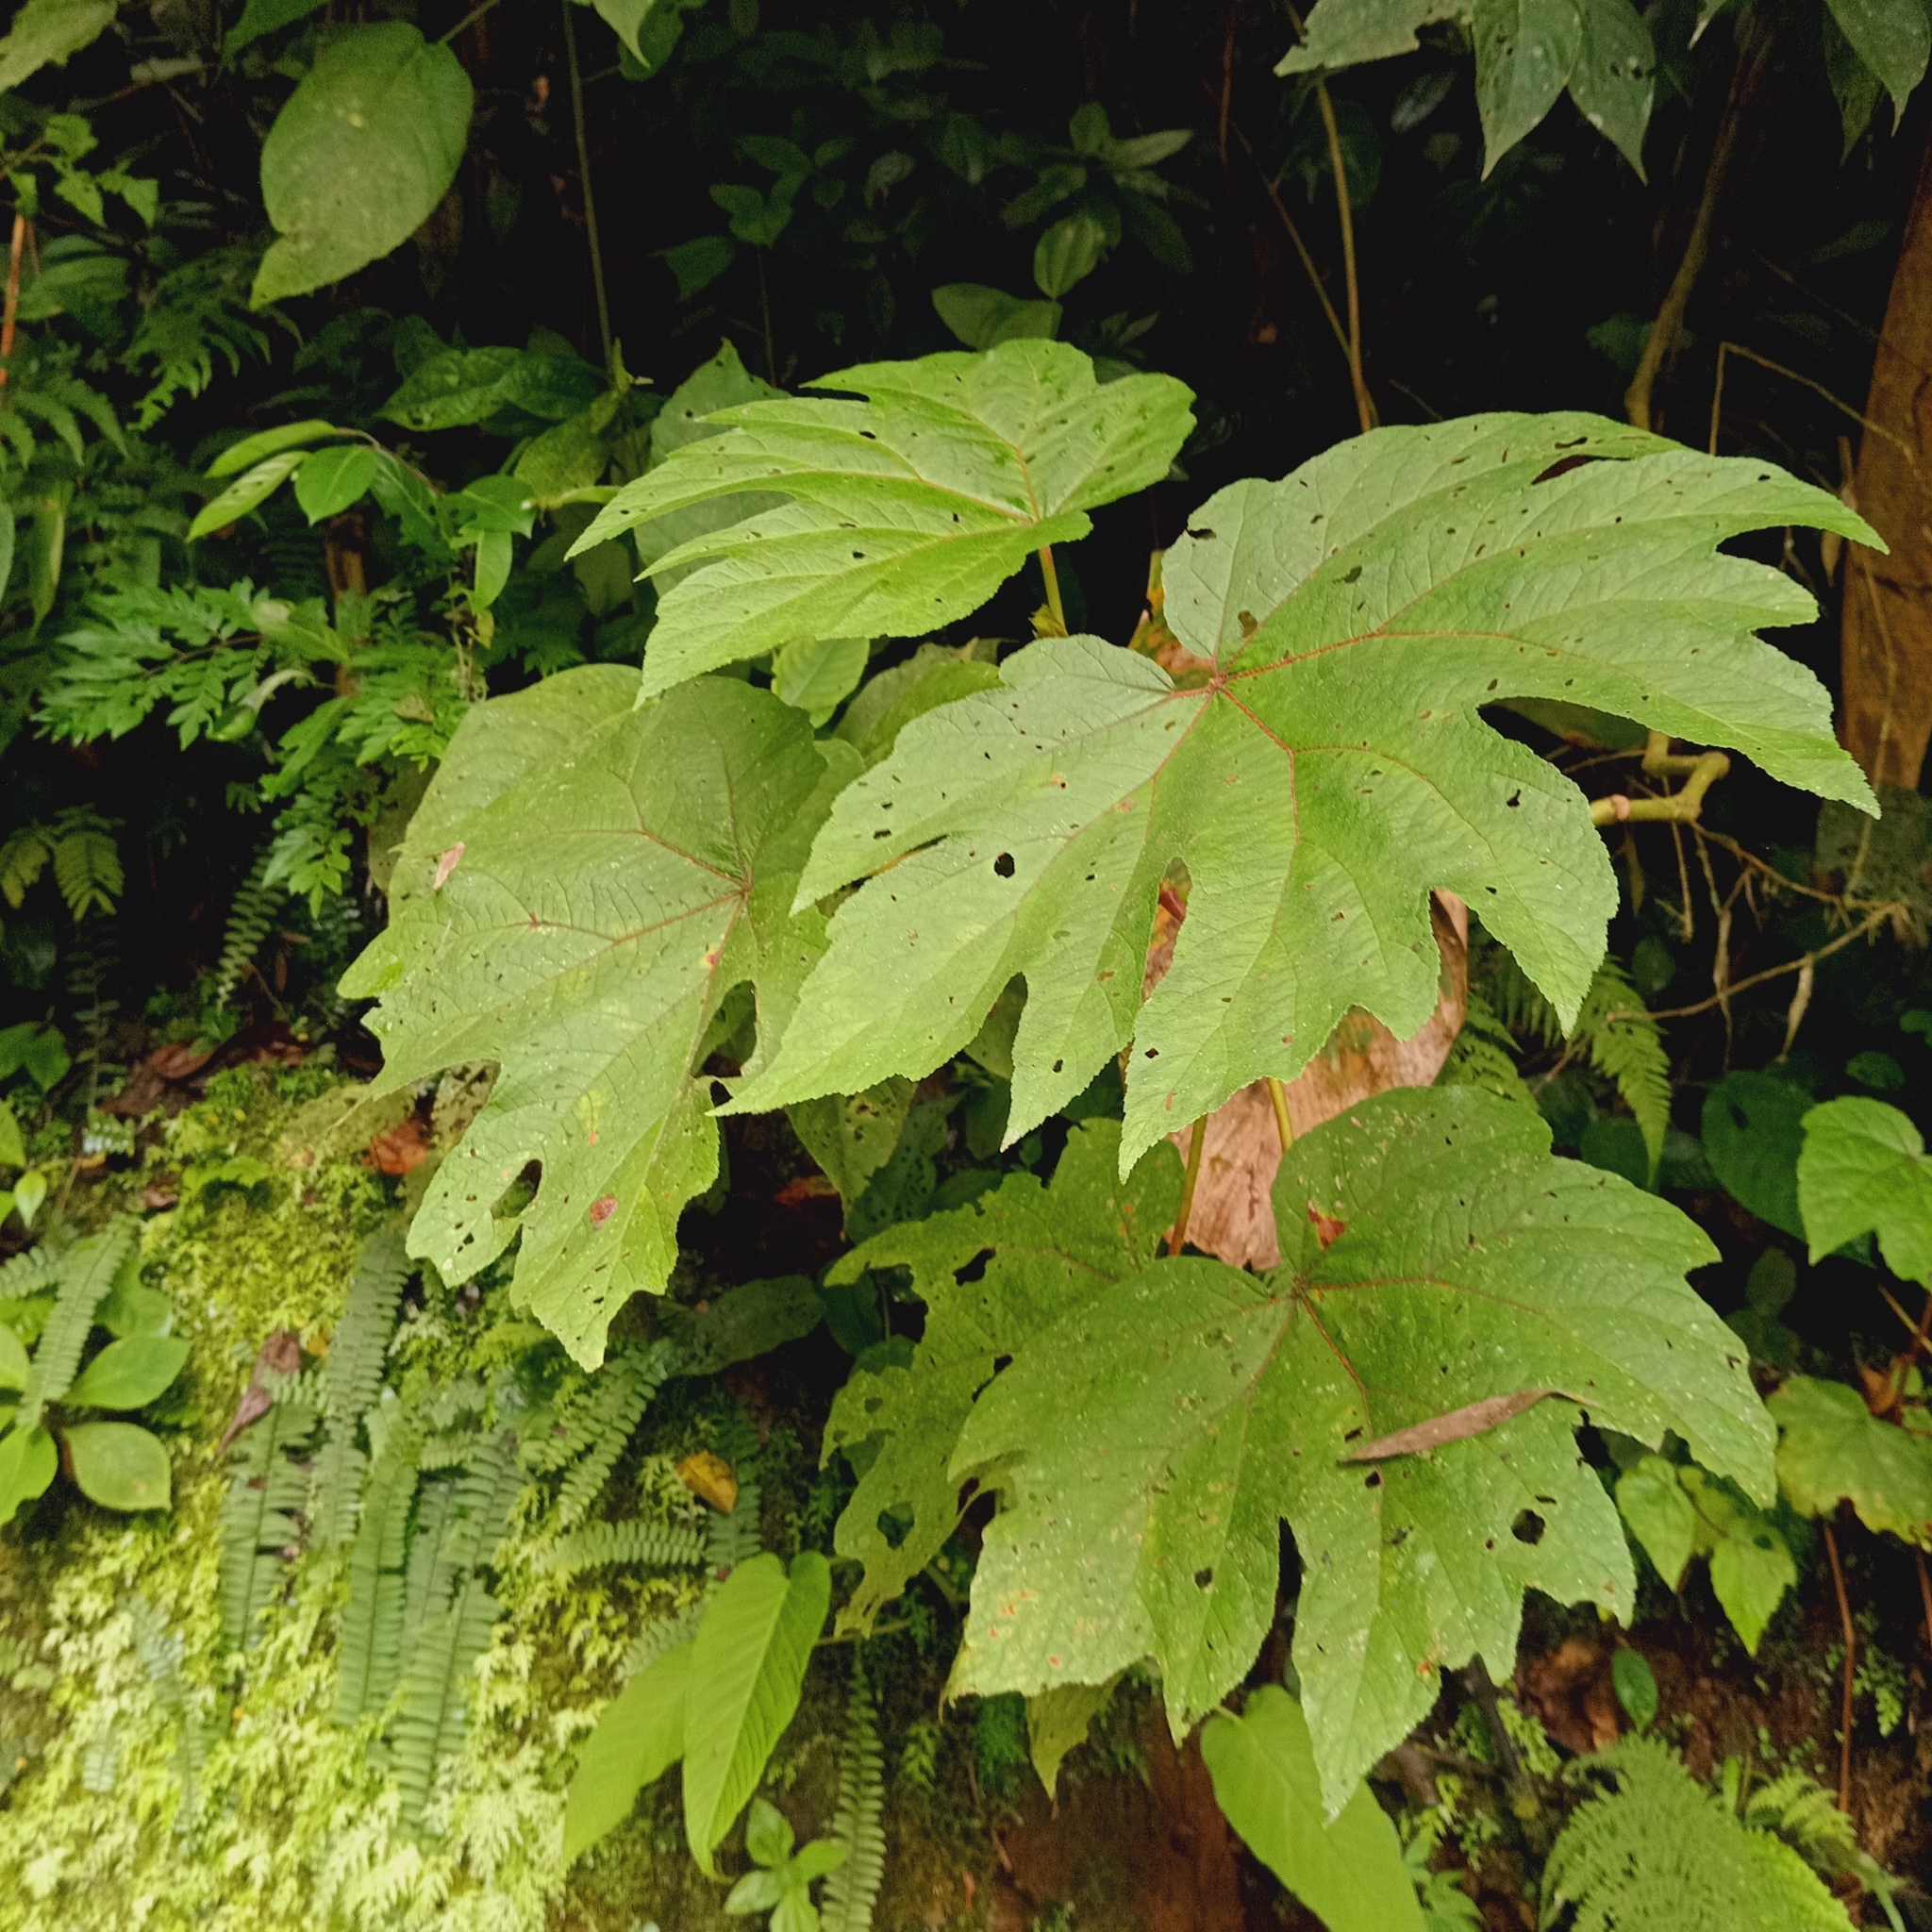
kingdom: Plantae
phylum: Tracheophyta
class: Magnoliopsida
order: Cucurbitales
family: Begoniaceae
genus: Begonia
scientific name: Begonia parviflora
